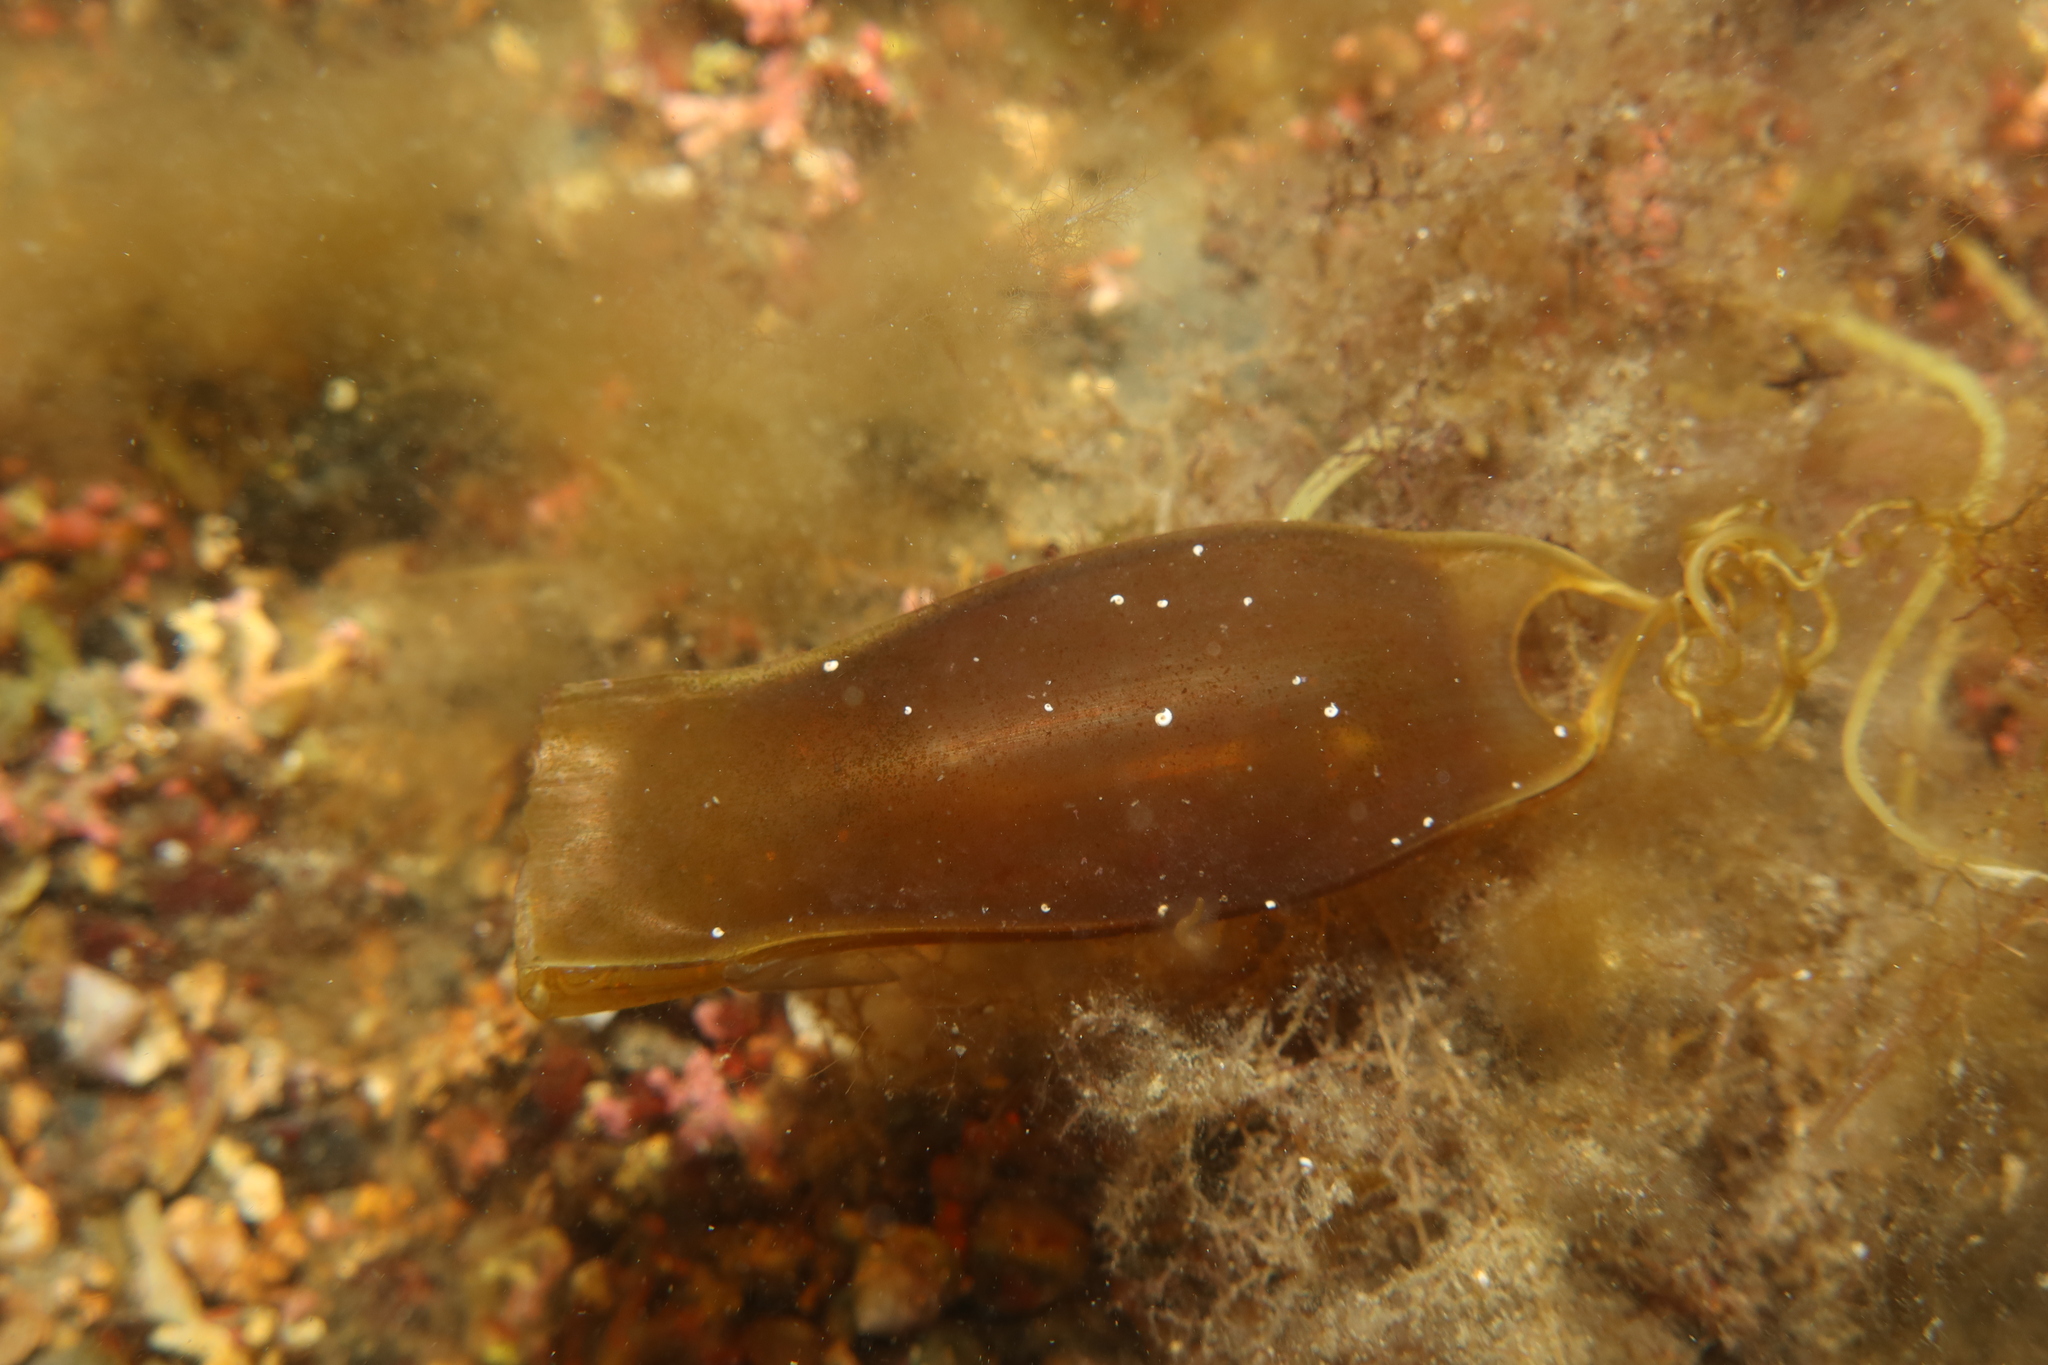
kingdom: Animalia
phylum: Chordata
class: Elasmobranchii
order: Carcharhiniformes
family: Scyliorhinidae
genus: Scyliorhinus
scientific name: Scyliorhinus canicula
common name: Lesser spotted dogfish
